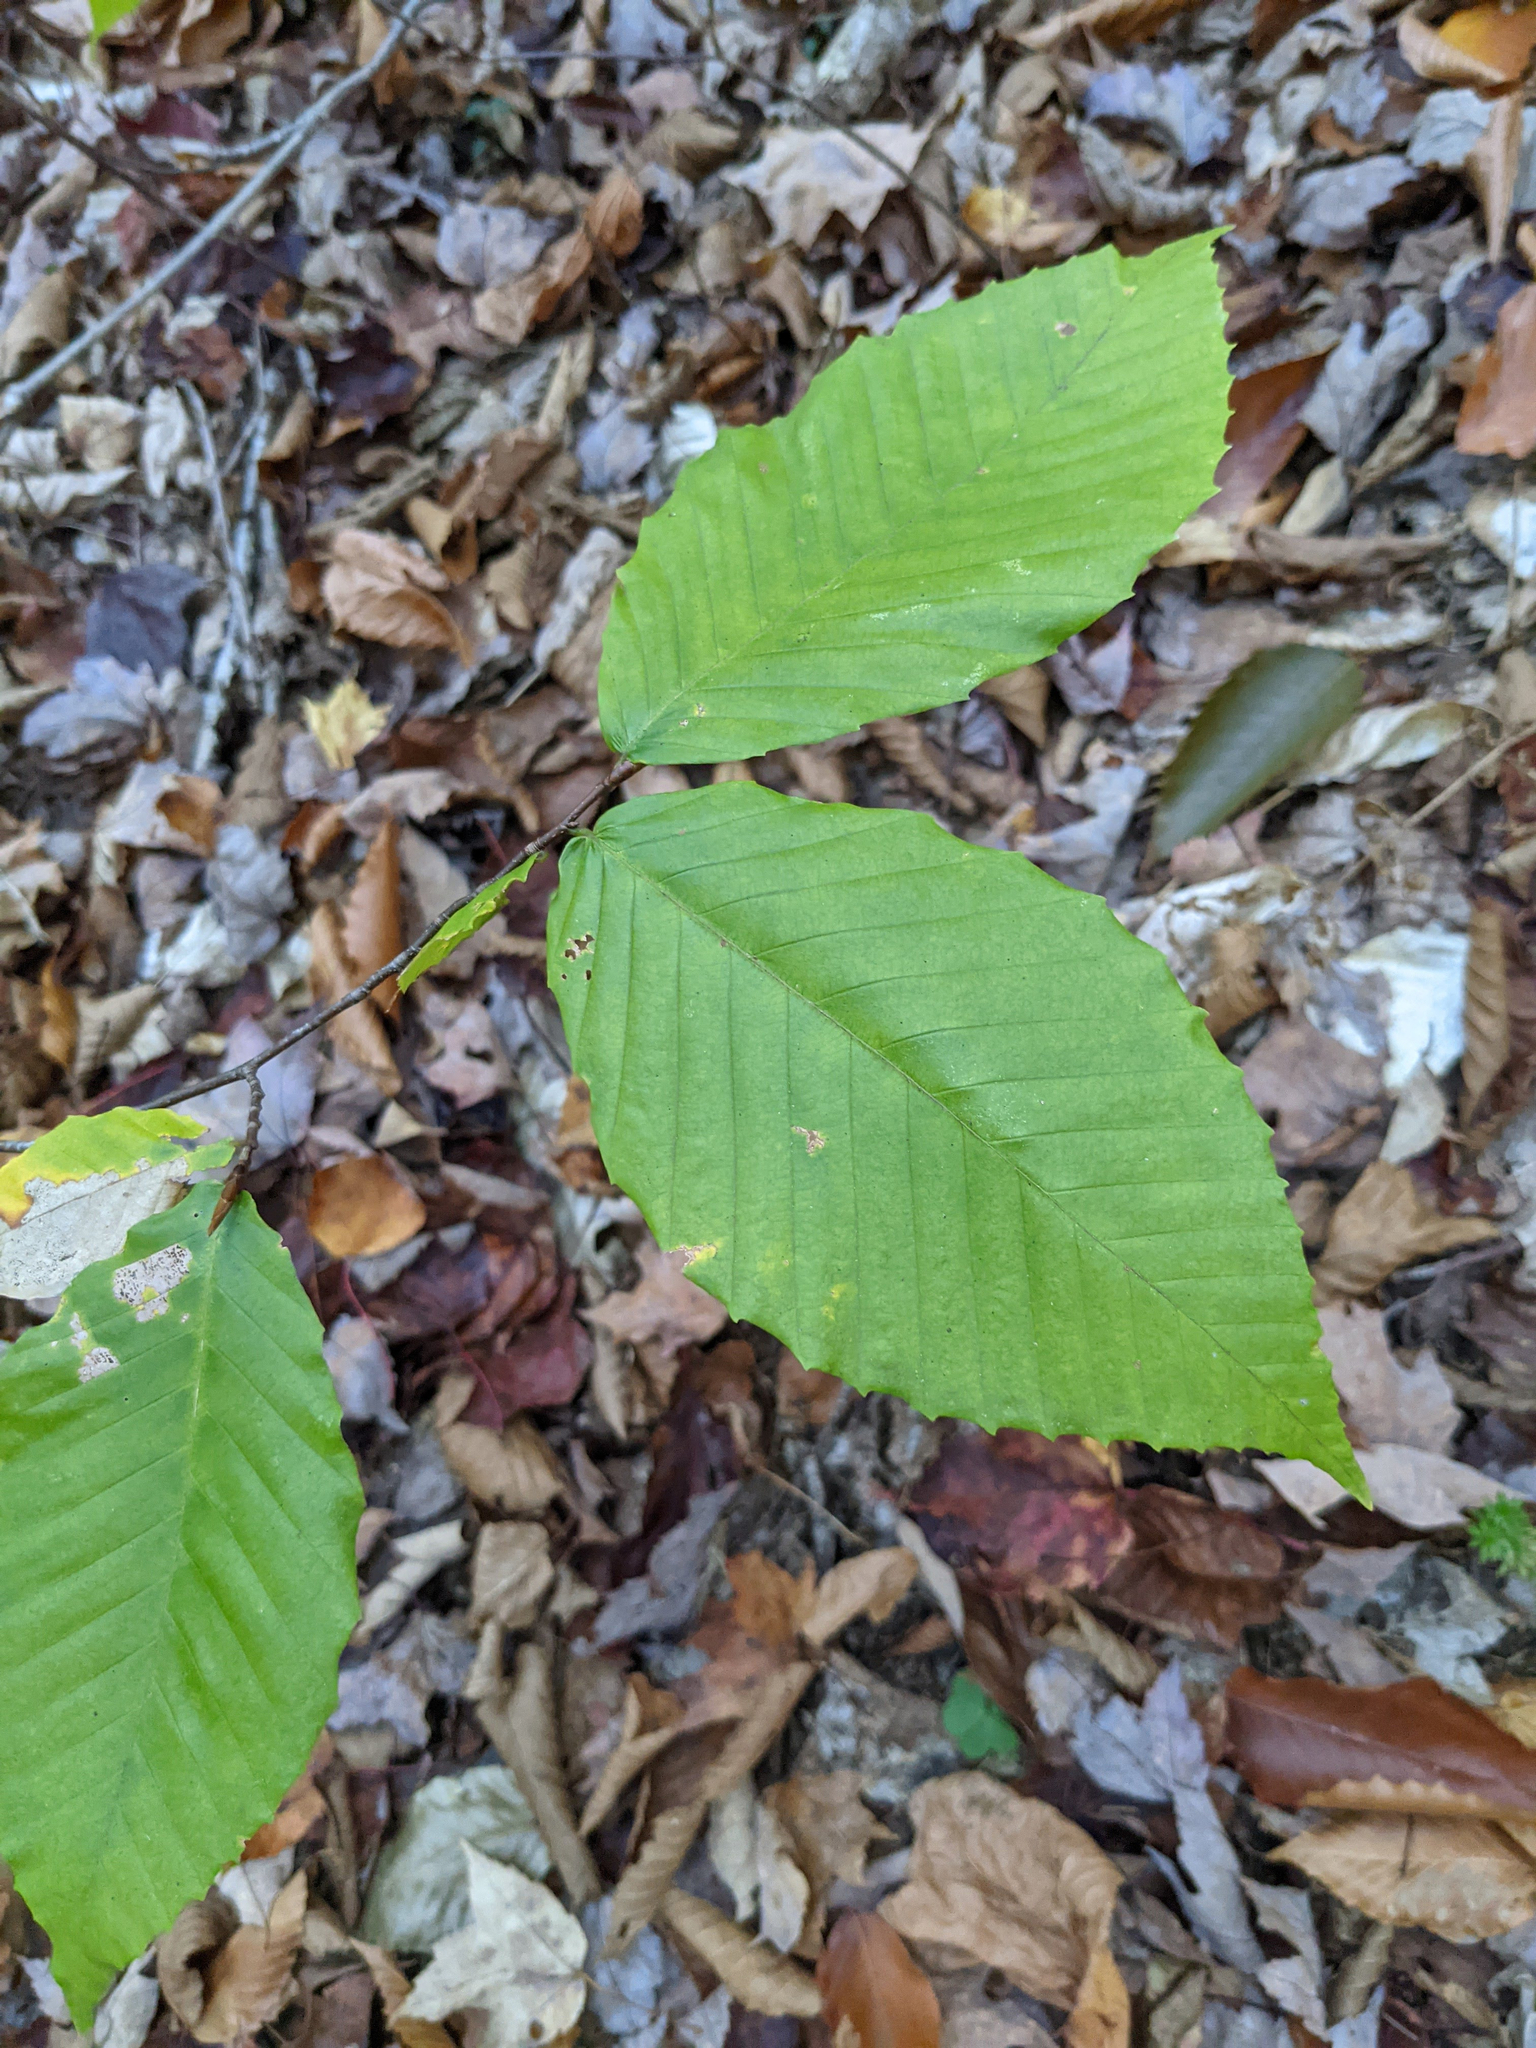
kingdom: Plantae
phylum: Tracheophyta
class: Magnoliopsida
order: Fagales
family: Fagaceae
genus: Fagus
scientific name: Fagus grandifolia
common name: American beech
